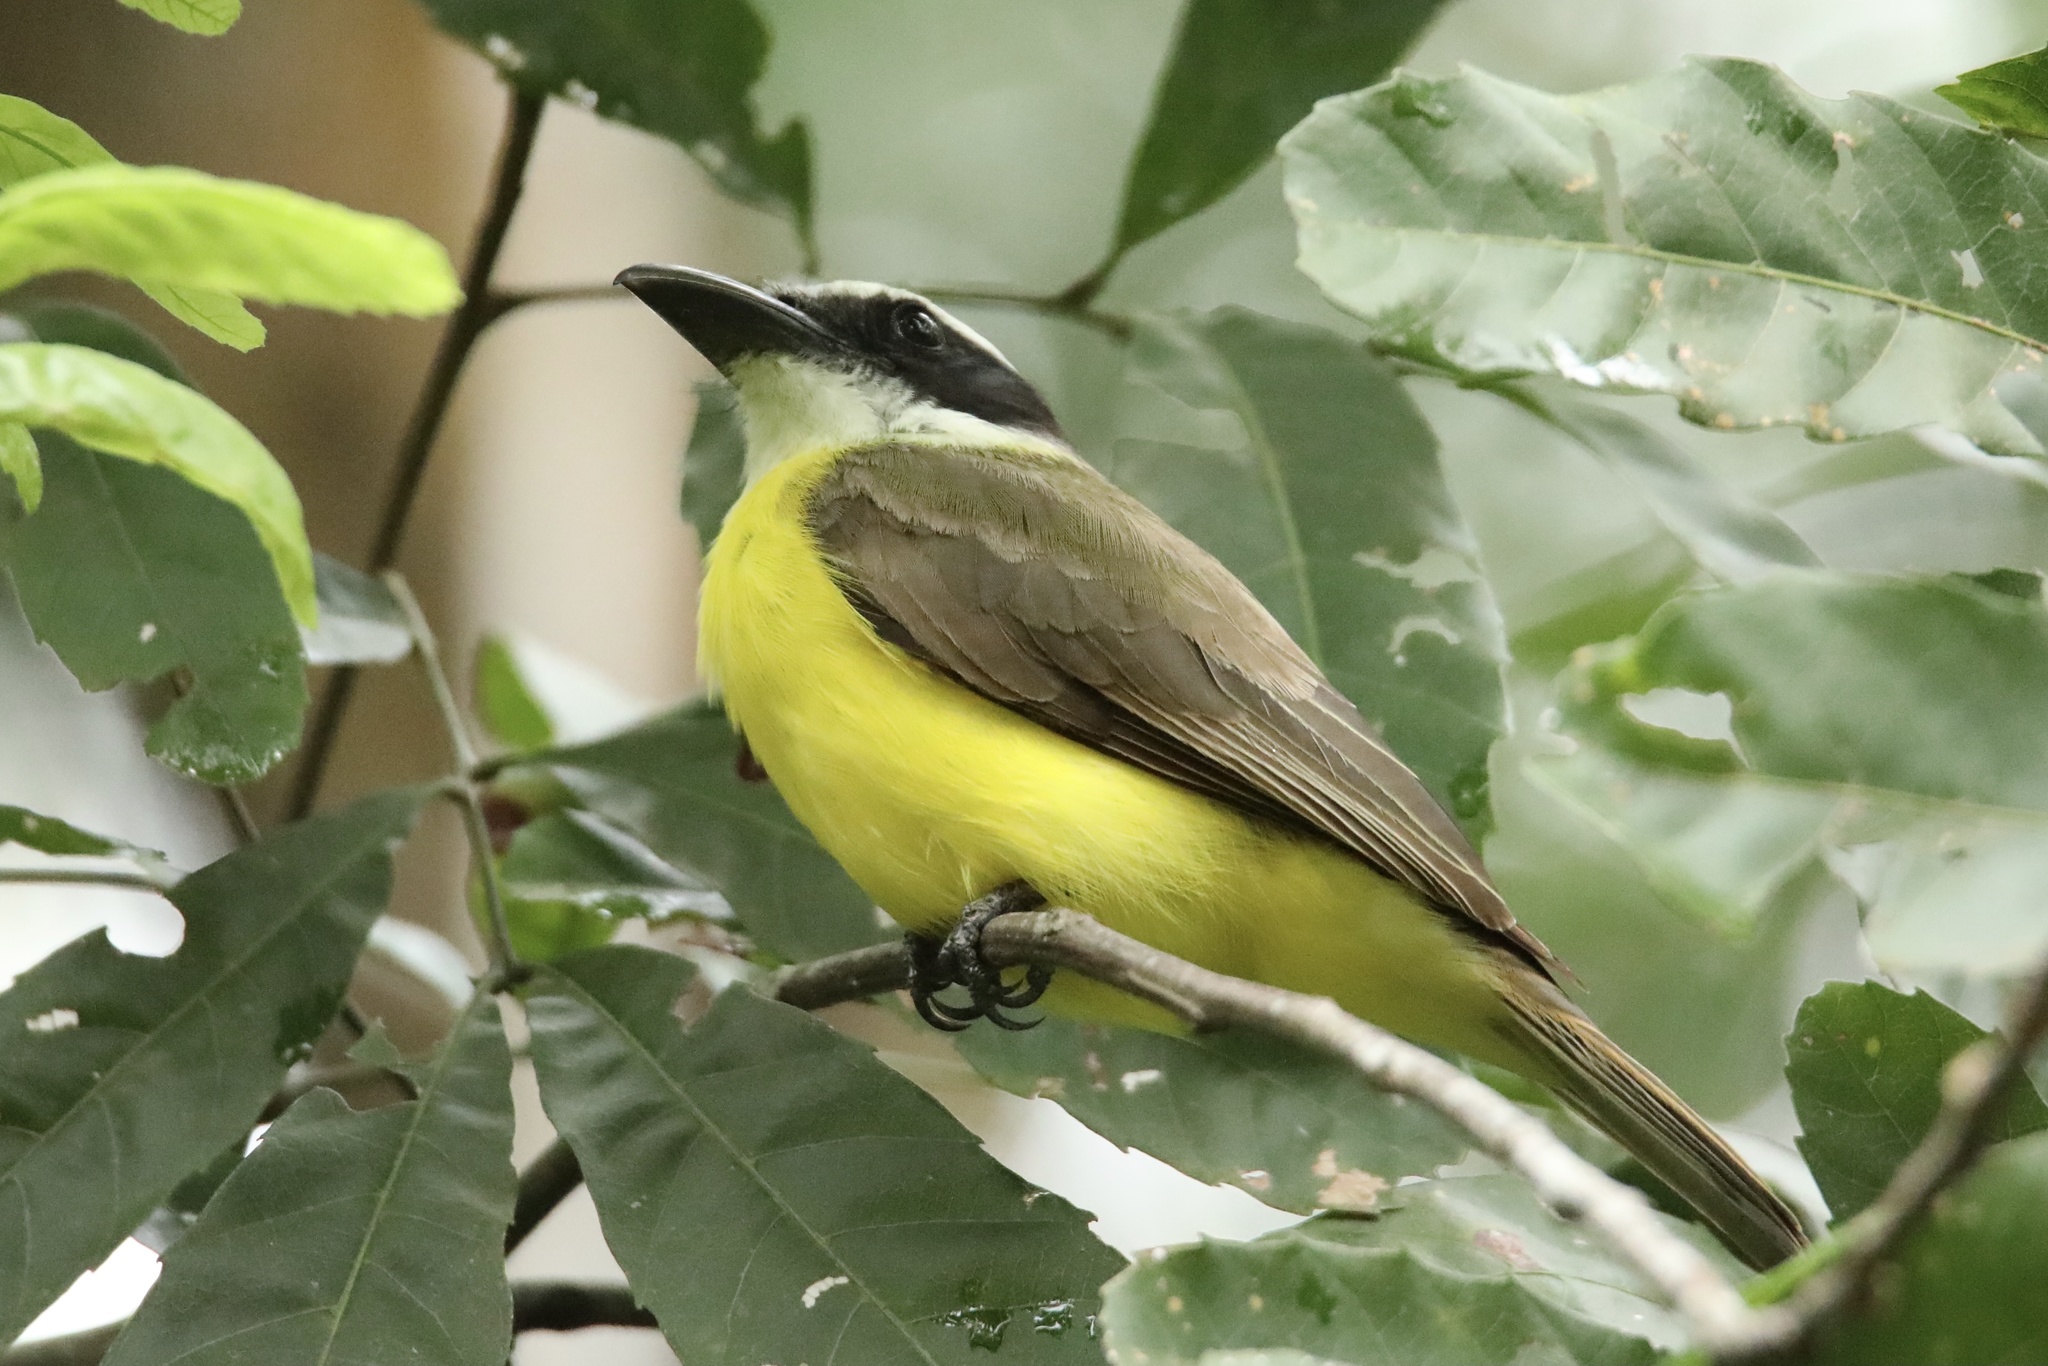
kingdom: Animalia
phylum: Chordata
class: Aves
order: Passeriformes
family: Tyrannidae
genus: Megarynchus
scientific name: Megarynchus pitangua
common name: Boat-billed flycatcher
